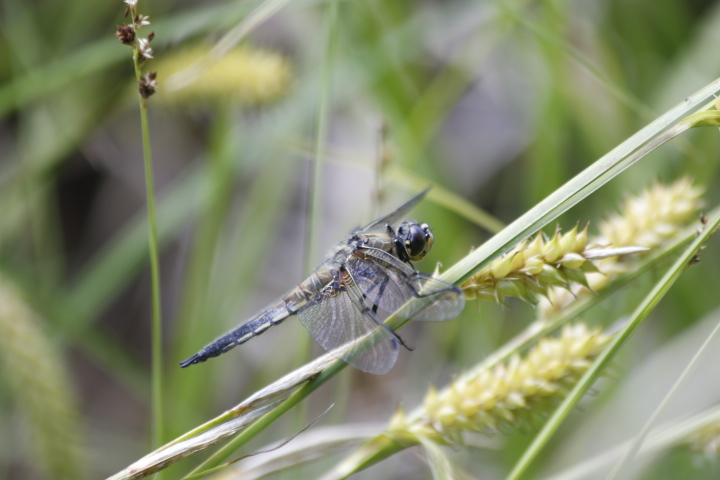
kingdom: Animalia
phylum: Arthropoda
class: Insecta
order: Odonata
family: Libellulidae
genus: Libellula
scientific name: Libellula quadrimaculata
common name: Four-spotted chaser
